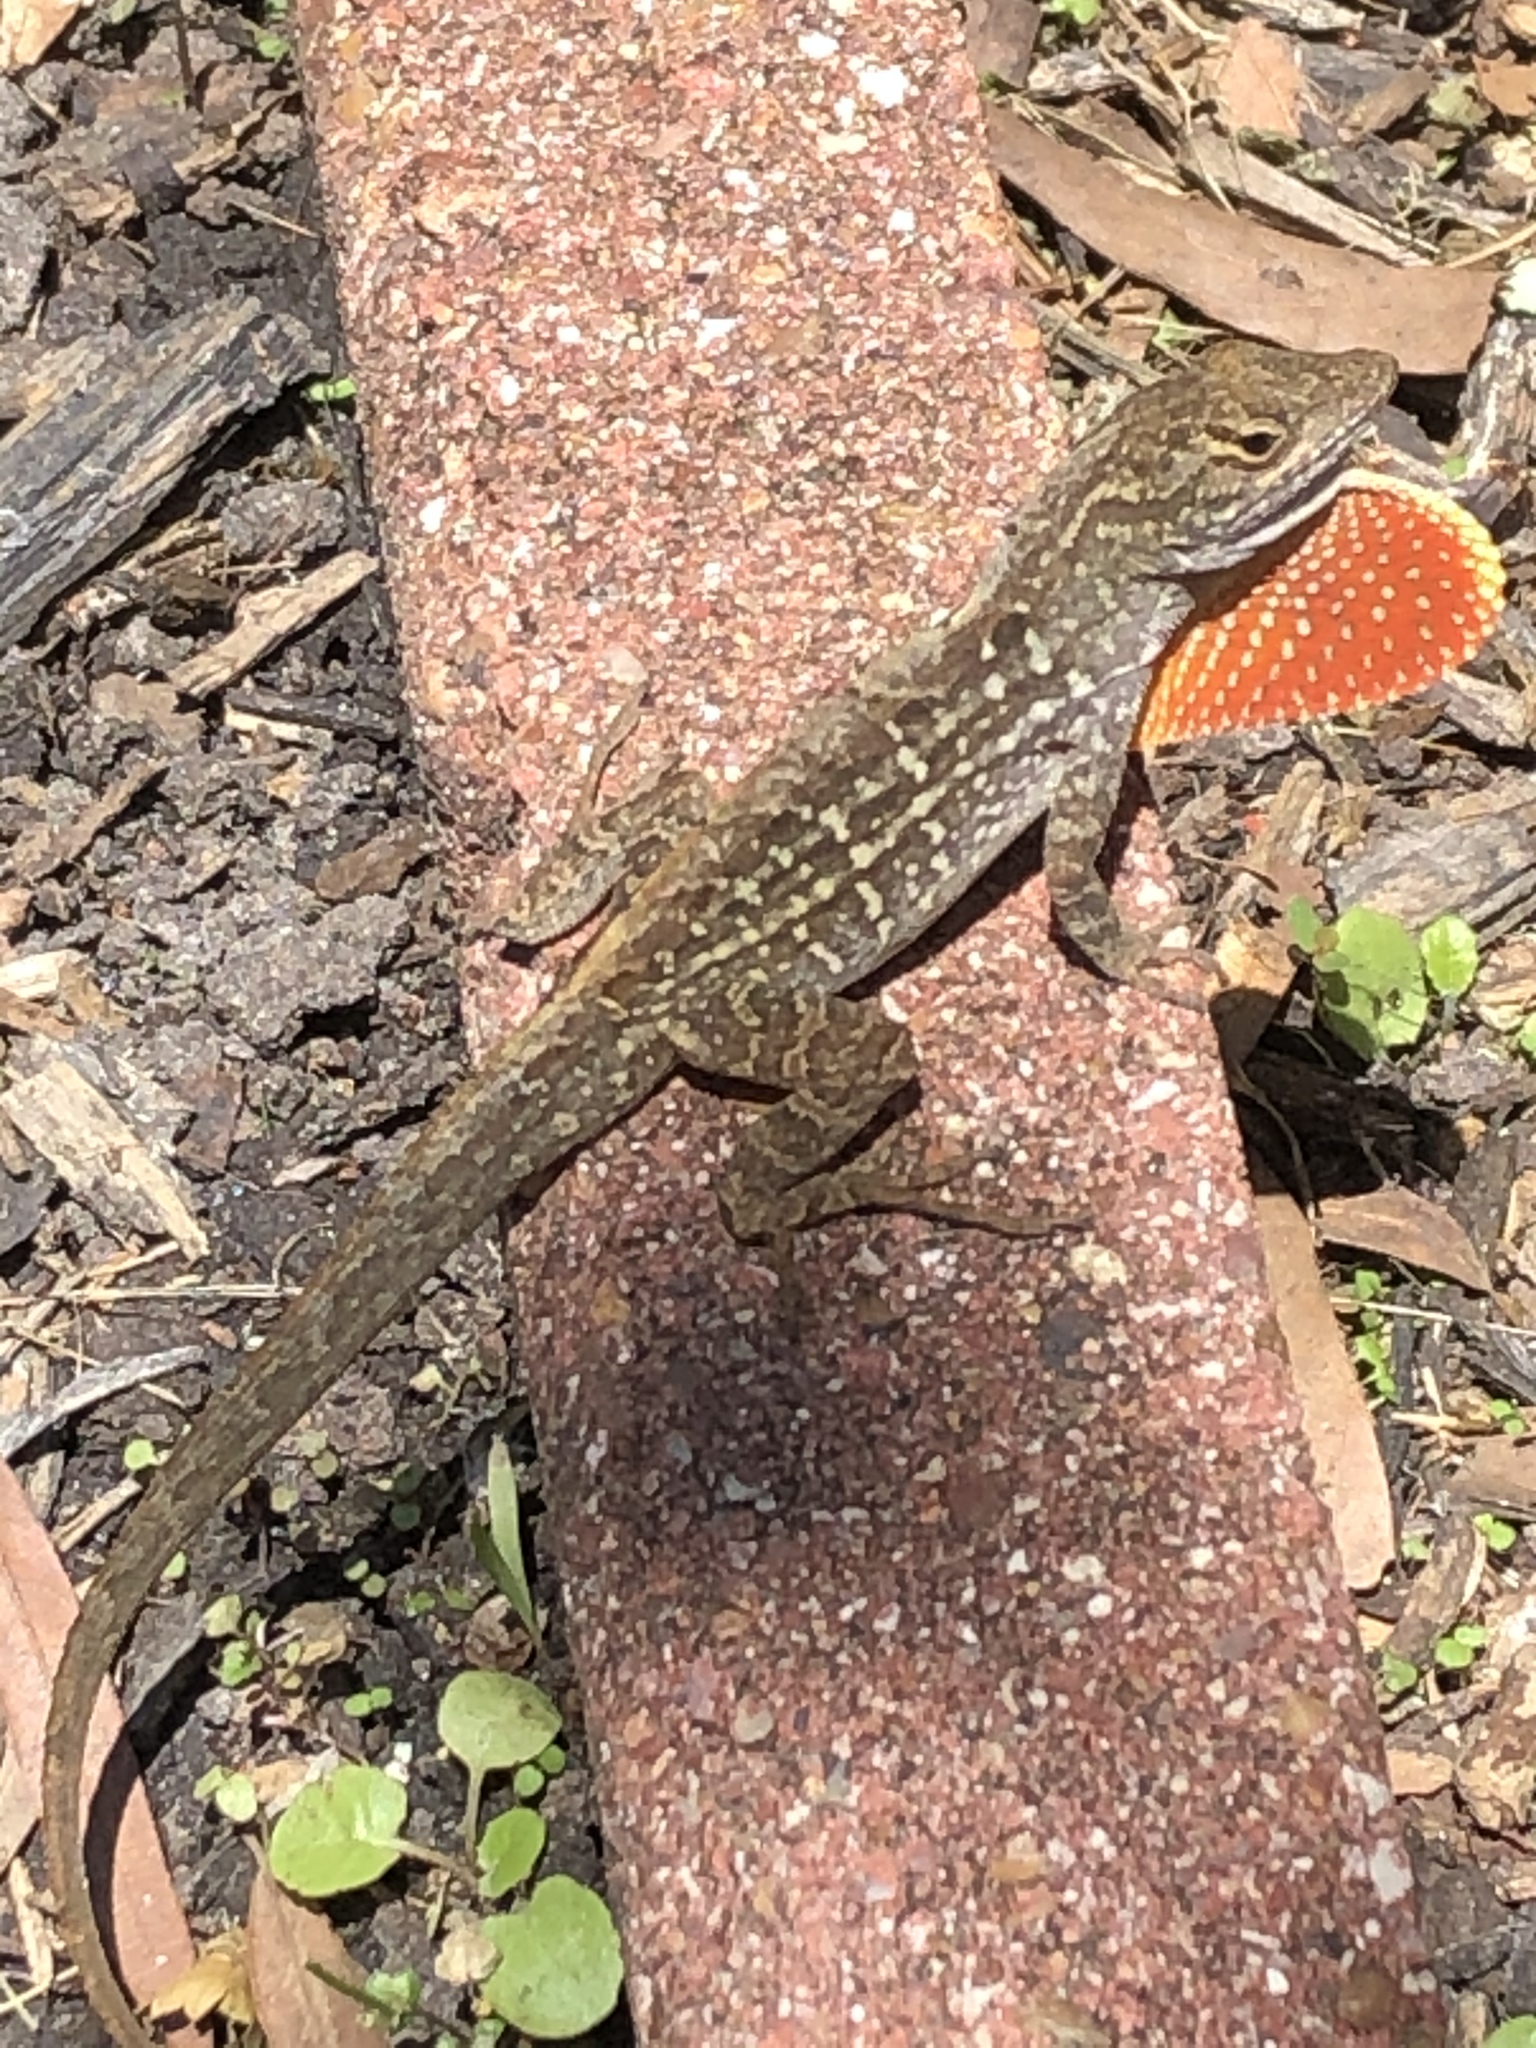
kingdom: Animalia
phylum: Chordata
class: Squamata
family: Dactyloidae
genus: Anolis
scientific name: Anolis sagrei
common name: Brown anole
